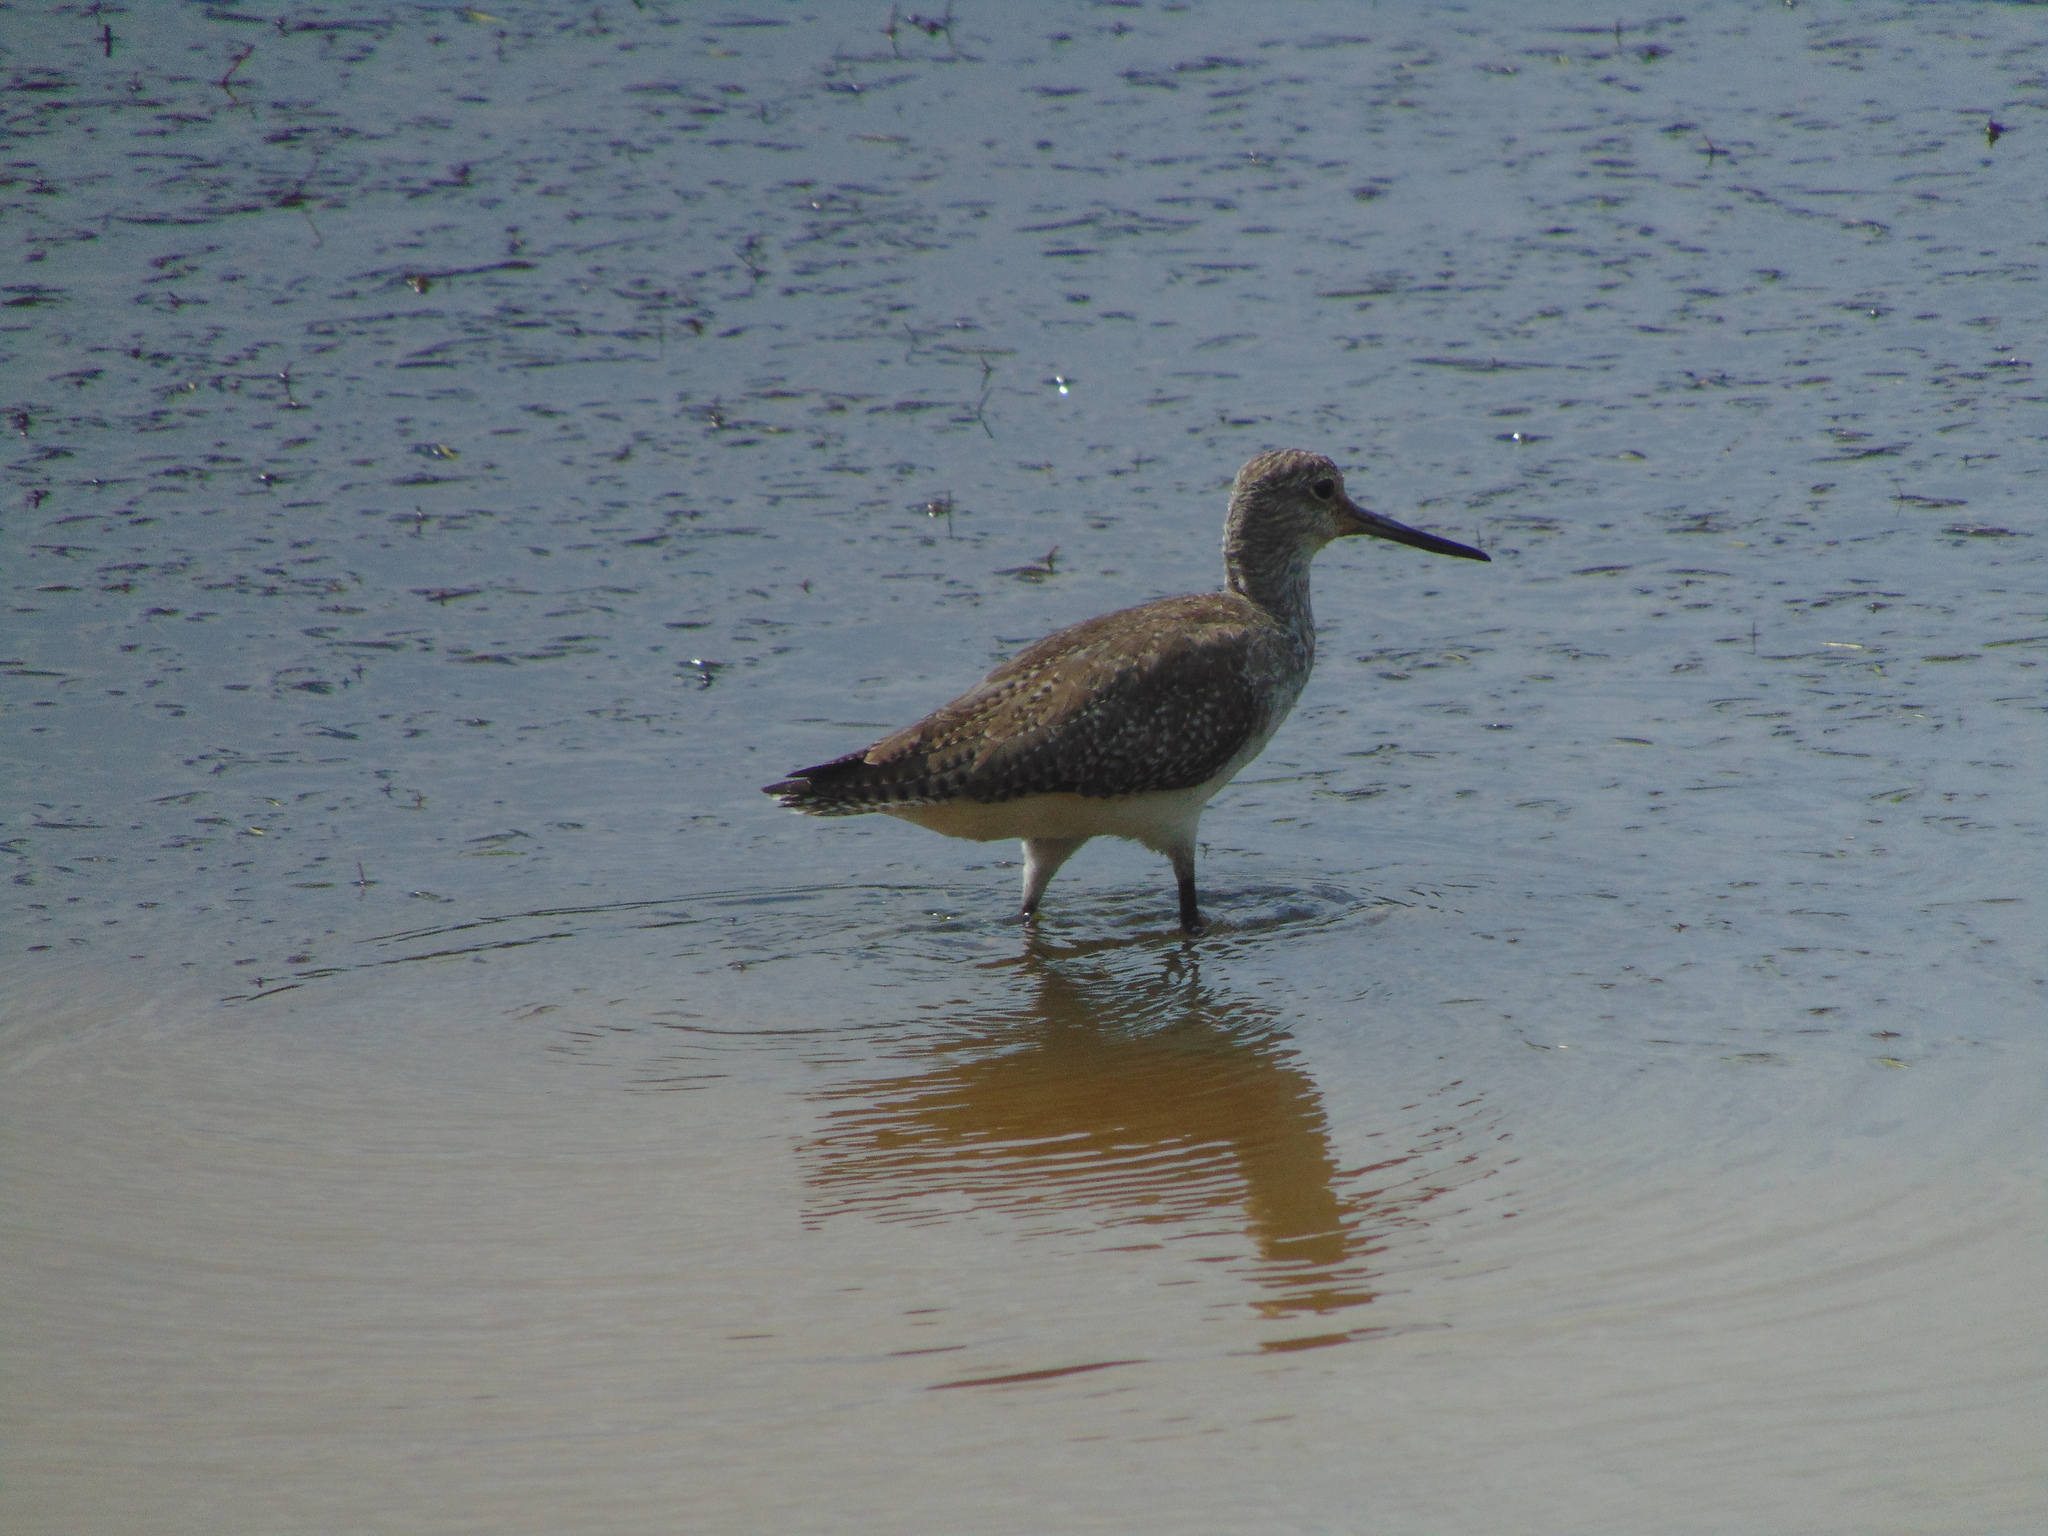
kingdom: Animalia
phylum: Chordata
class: Aves
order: Charadriiformes
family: Scolopacidae
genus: Tringa
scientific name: Tringa melanoleuca
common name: Greater yellowlegs
